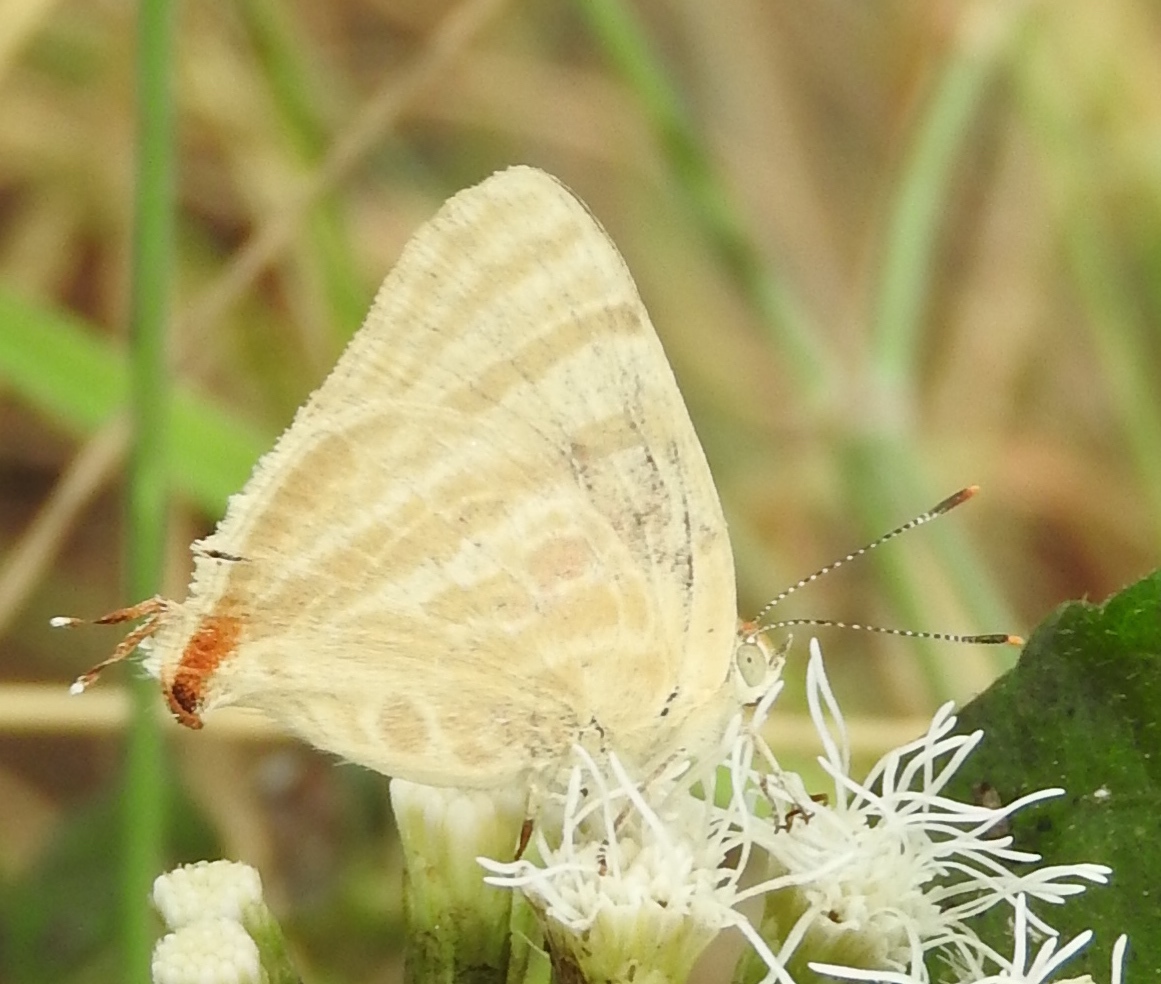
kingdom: Animalia
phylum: Arthropoda
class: Insecta
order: Lepidoptera
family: Lycaenidae
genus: Dolymorpha
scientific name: Dolymorpha jada
